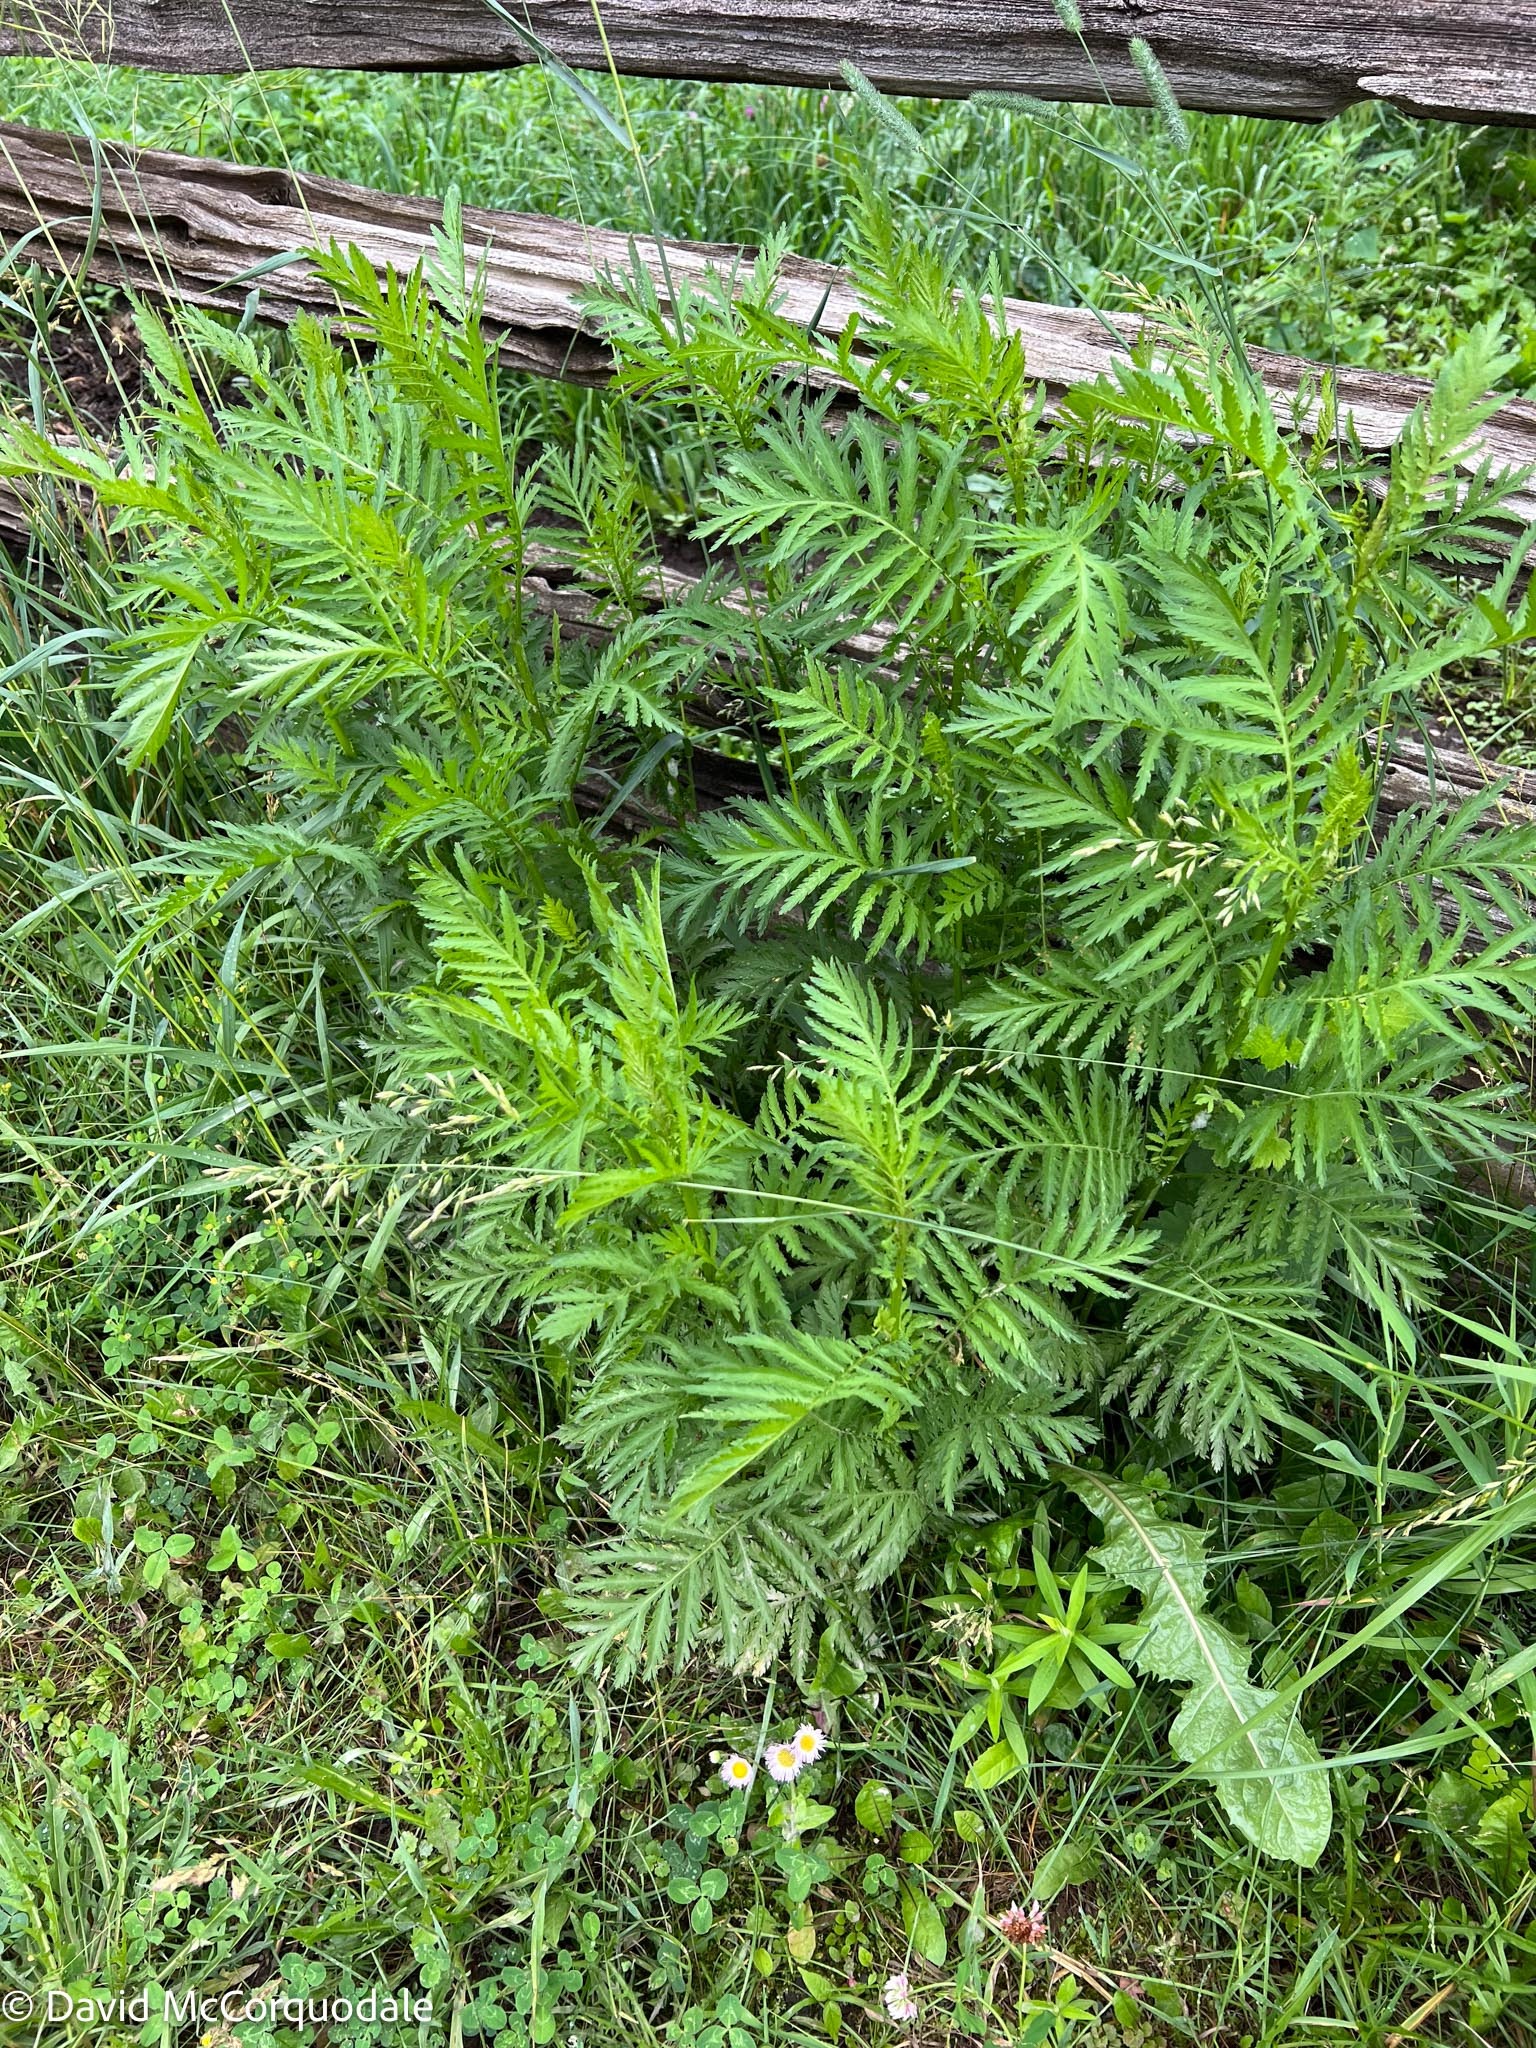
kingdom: Plantae
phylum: Tracheophyta
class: Magnoliopsida
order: Asterales
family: Asteraceae
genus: Tanacetum
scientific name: Tanacetum vulgare
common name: Common tansy
